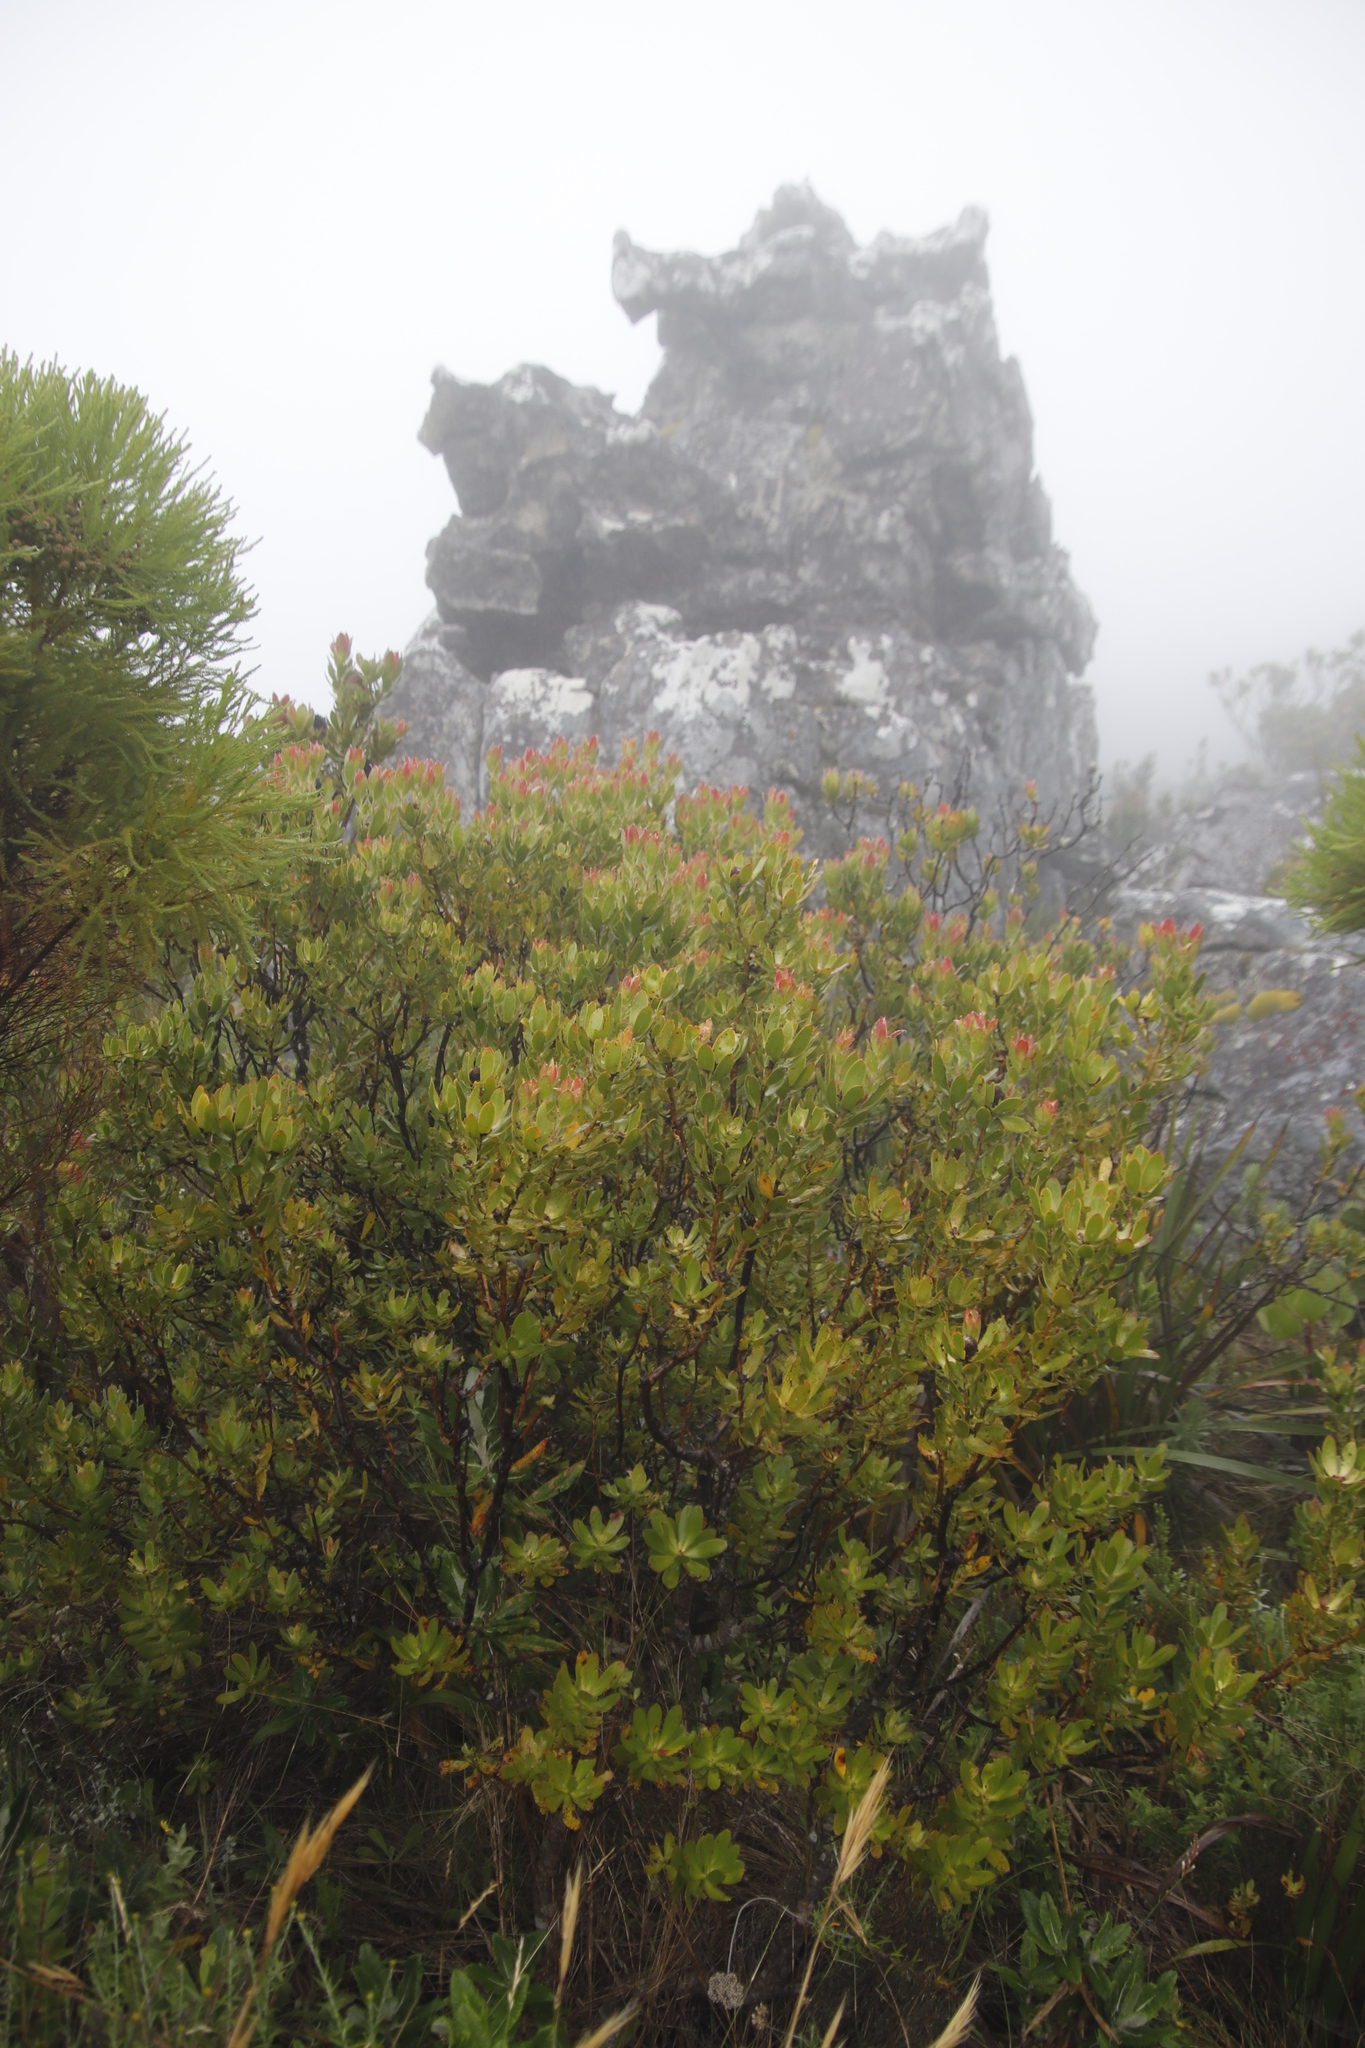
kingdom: Plantae
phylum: Tracheophyta
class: Magnoliopsida
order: Proteales
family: Proteaceae
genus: Leucadendron
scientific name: Leucadendron strobilinum
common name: Mountain rose
